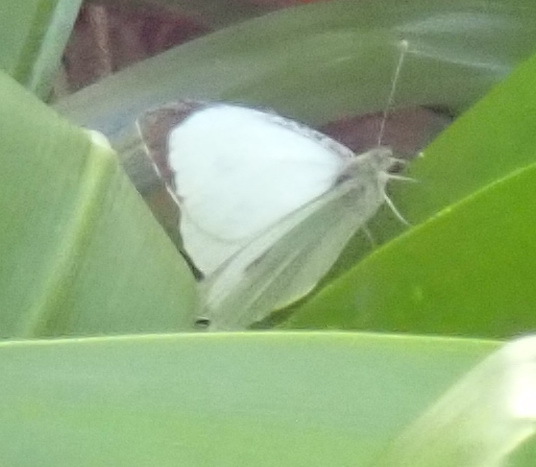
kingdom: Animalia
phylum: Arthropoda
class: Insecta
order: Lepidoptera
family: Pieridae
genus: Pieris
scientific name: Pieris brassicae
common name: Large white
